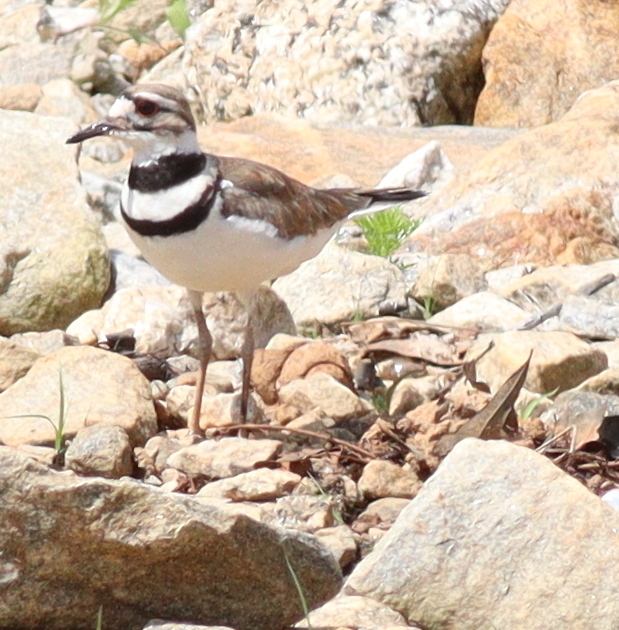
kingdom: Animalia
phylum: Chordata
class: Aves
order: Charadriiformes
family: Charadriidae
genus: Charadrius
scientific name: Charadrius vociferus
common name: Killdeer
